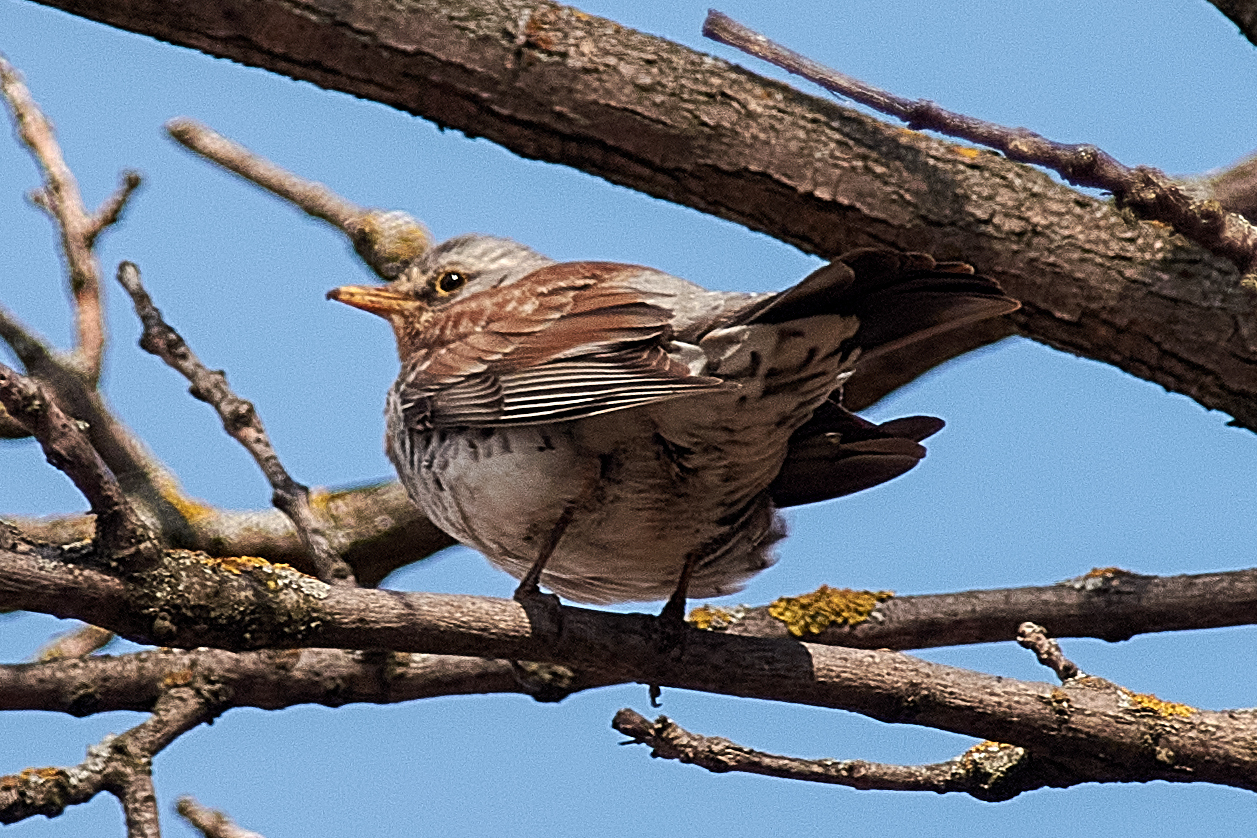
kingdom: Animalia
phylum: Chordata
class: Aves
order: Passeriformes
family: Turdidae
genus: Turdus
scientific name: Turdus pilaris
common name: Fieldfare
